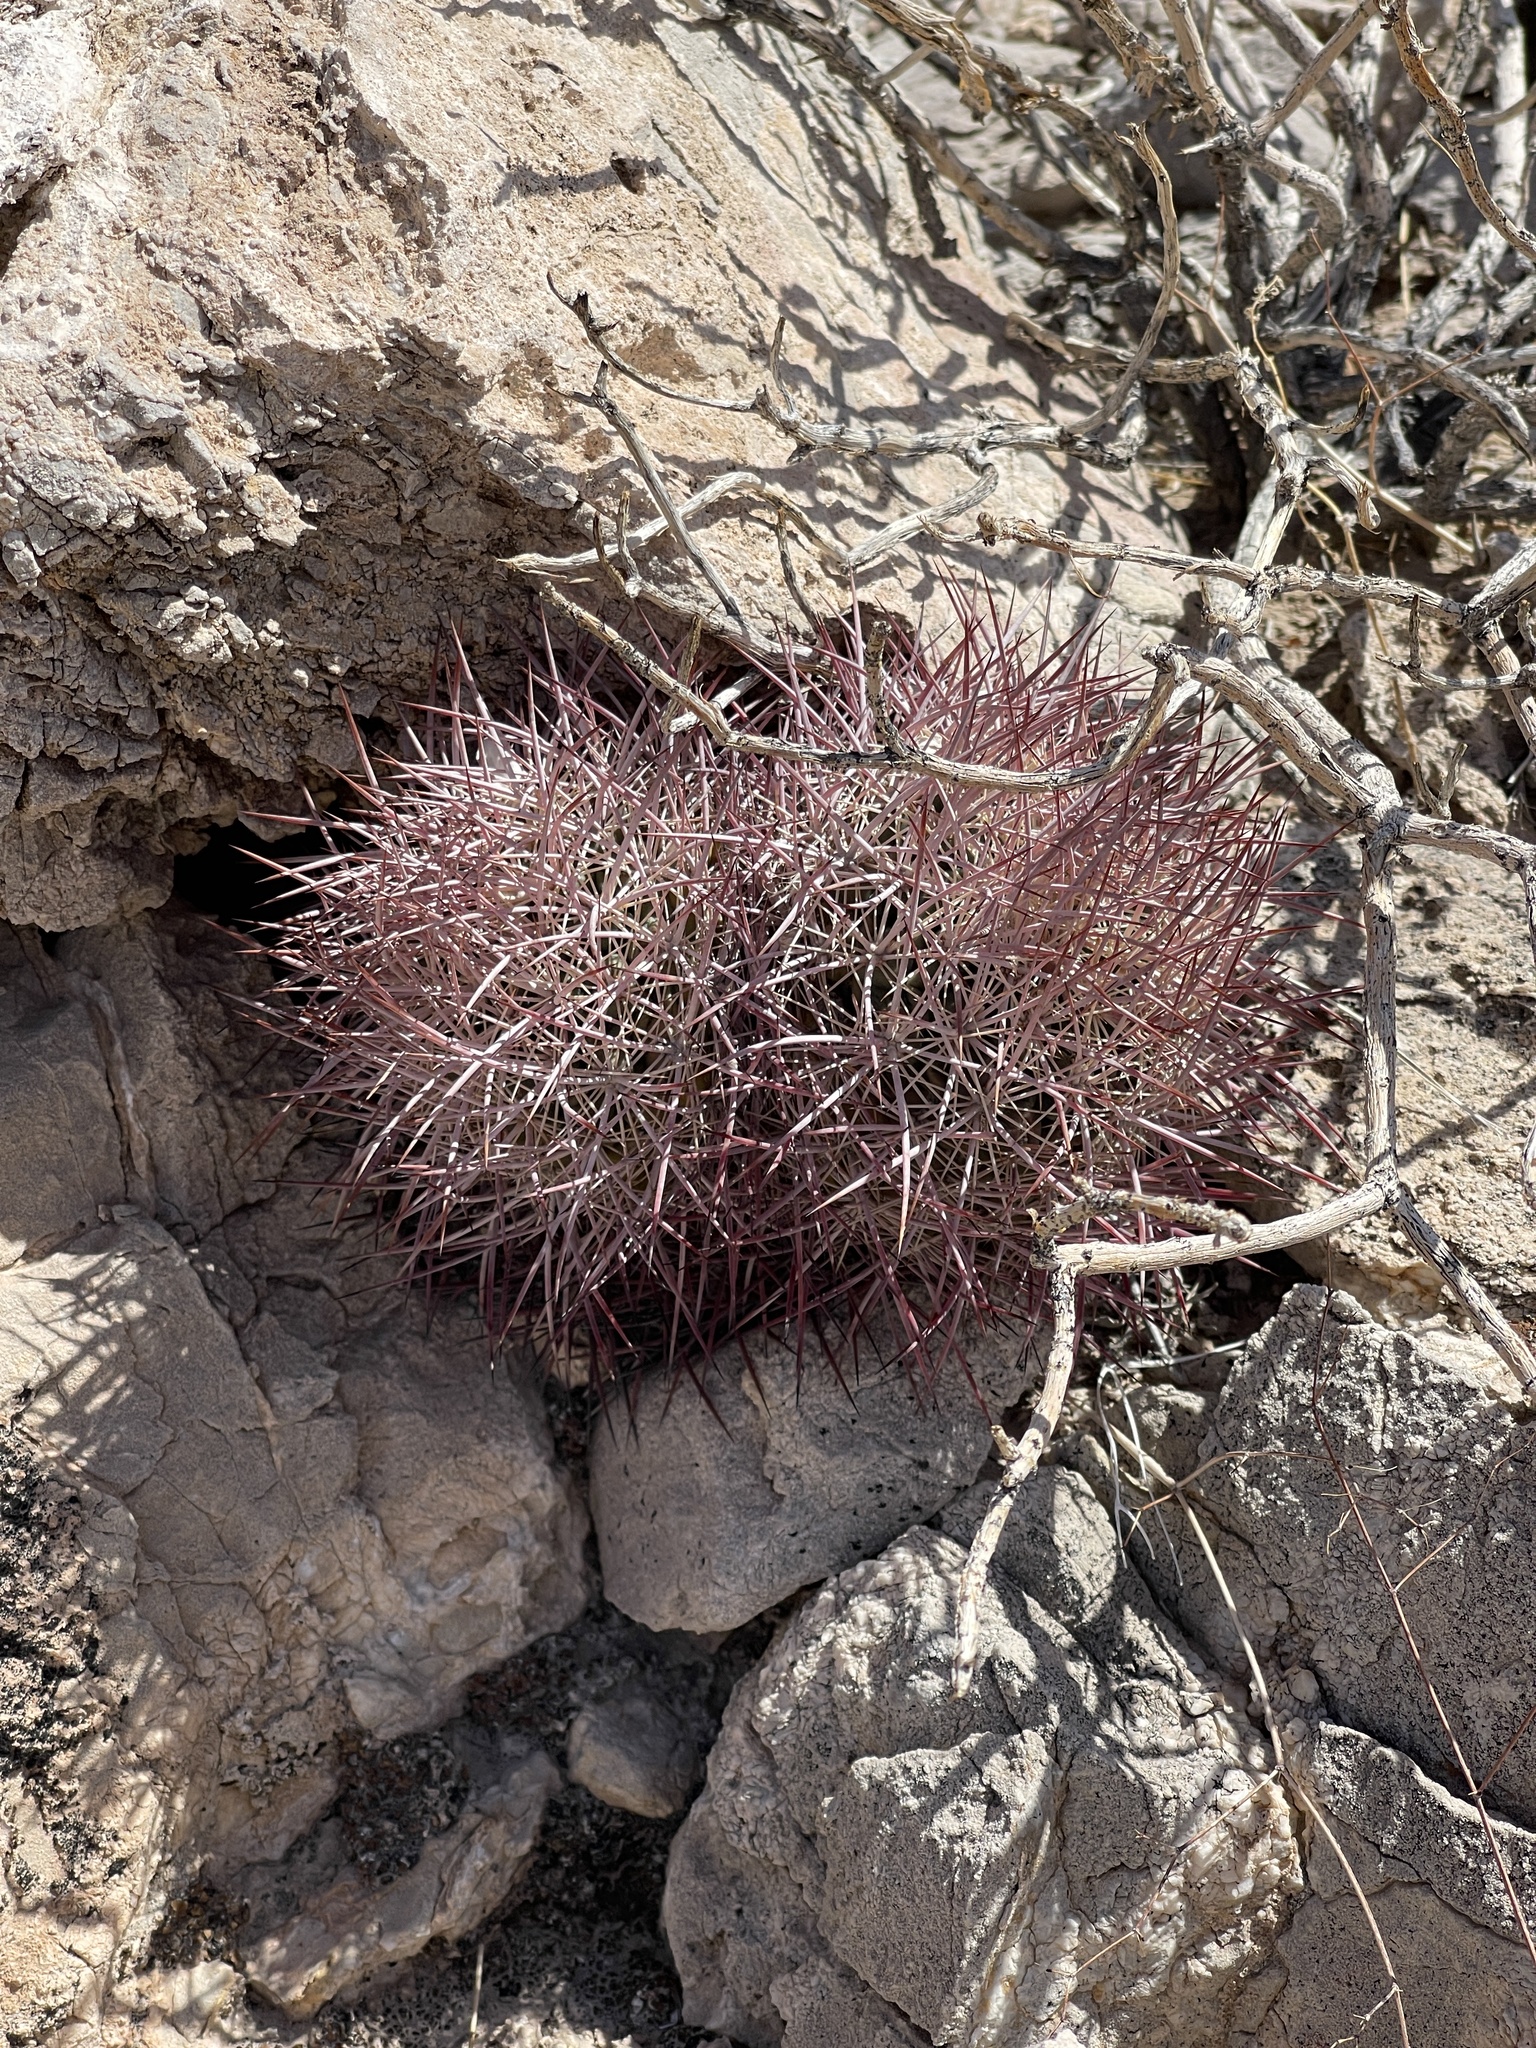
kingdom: Plantae
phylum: Tracheophyta
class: Magnoliopsida
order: Caryophyllales
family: Cactaceae
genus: Sclerocactus
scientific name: Sclerocactus johnsonii
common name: Eight-spine fishhook cactus
